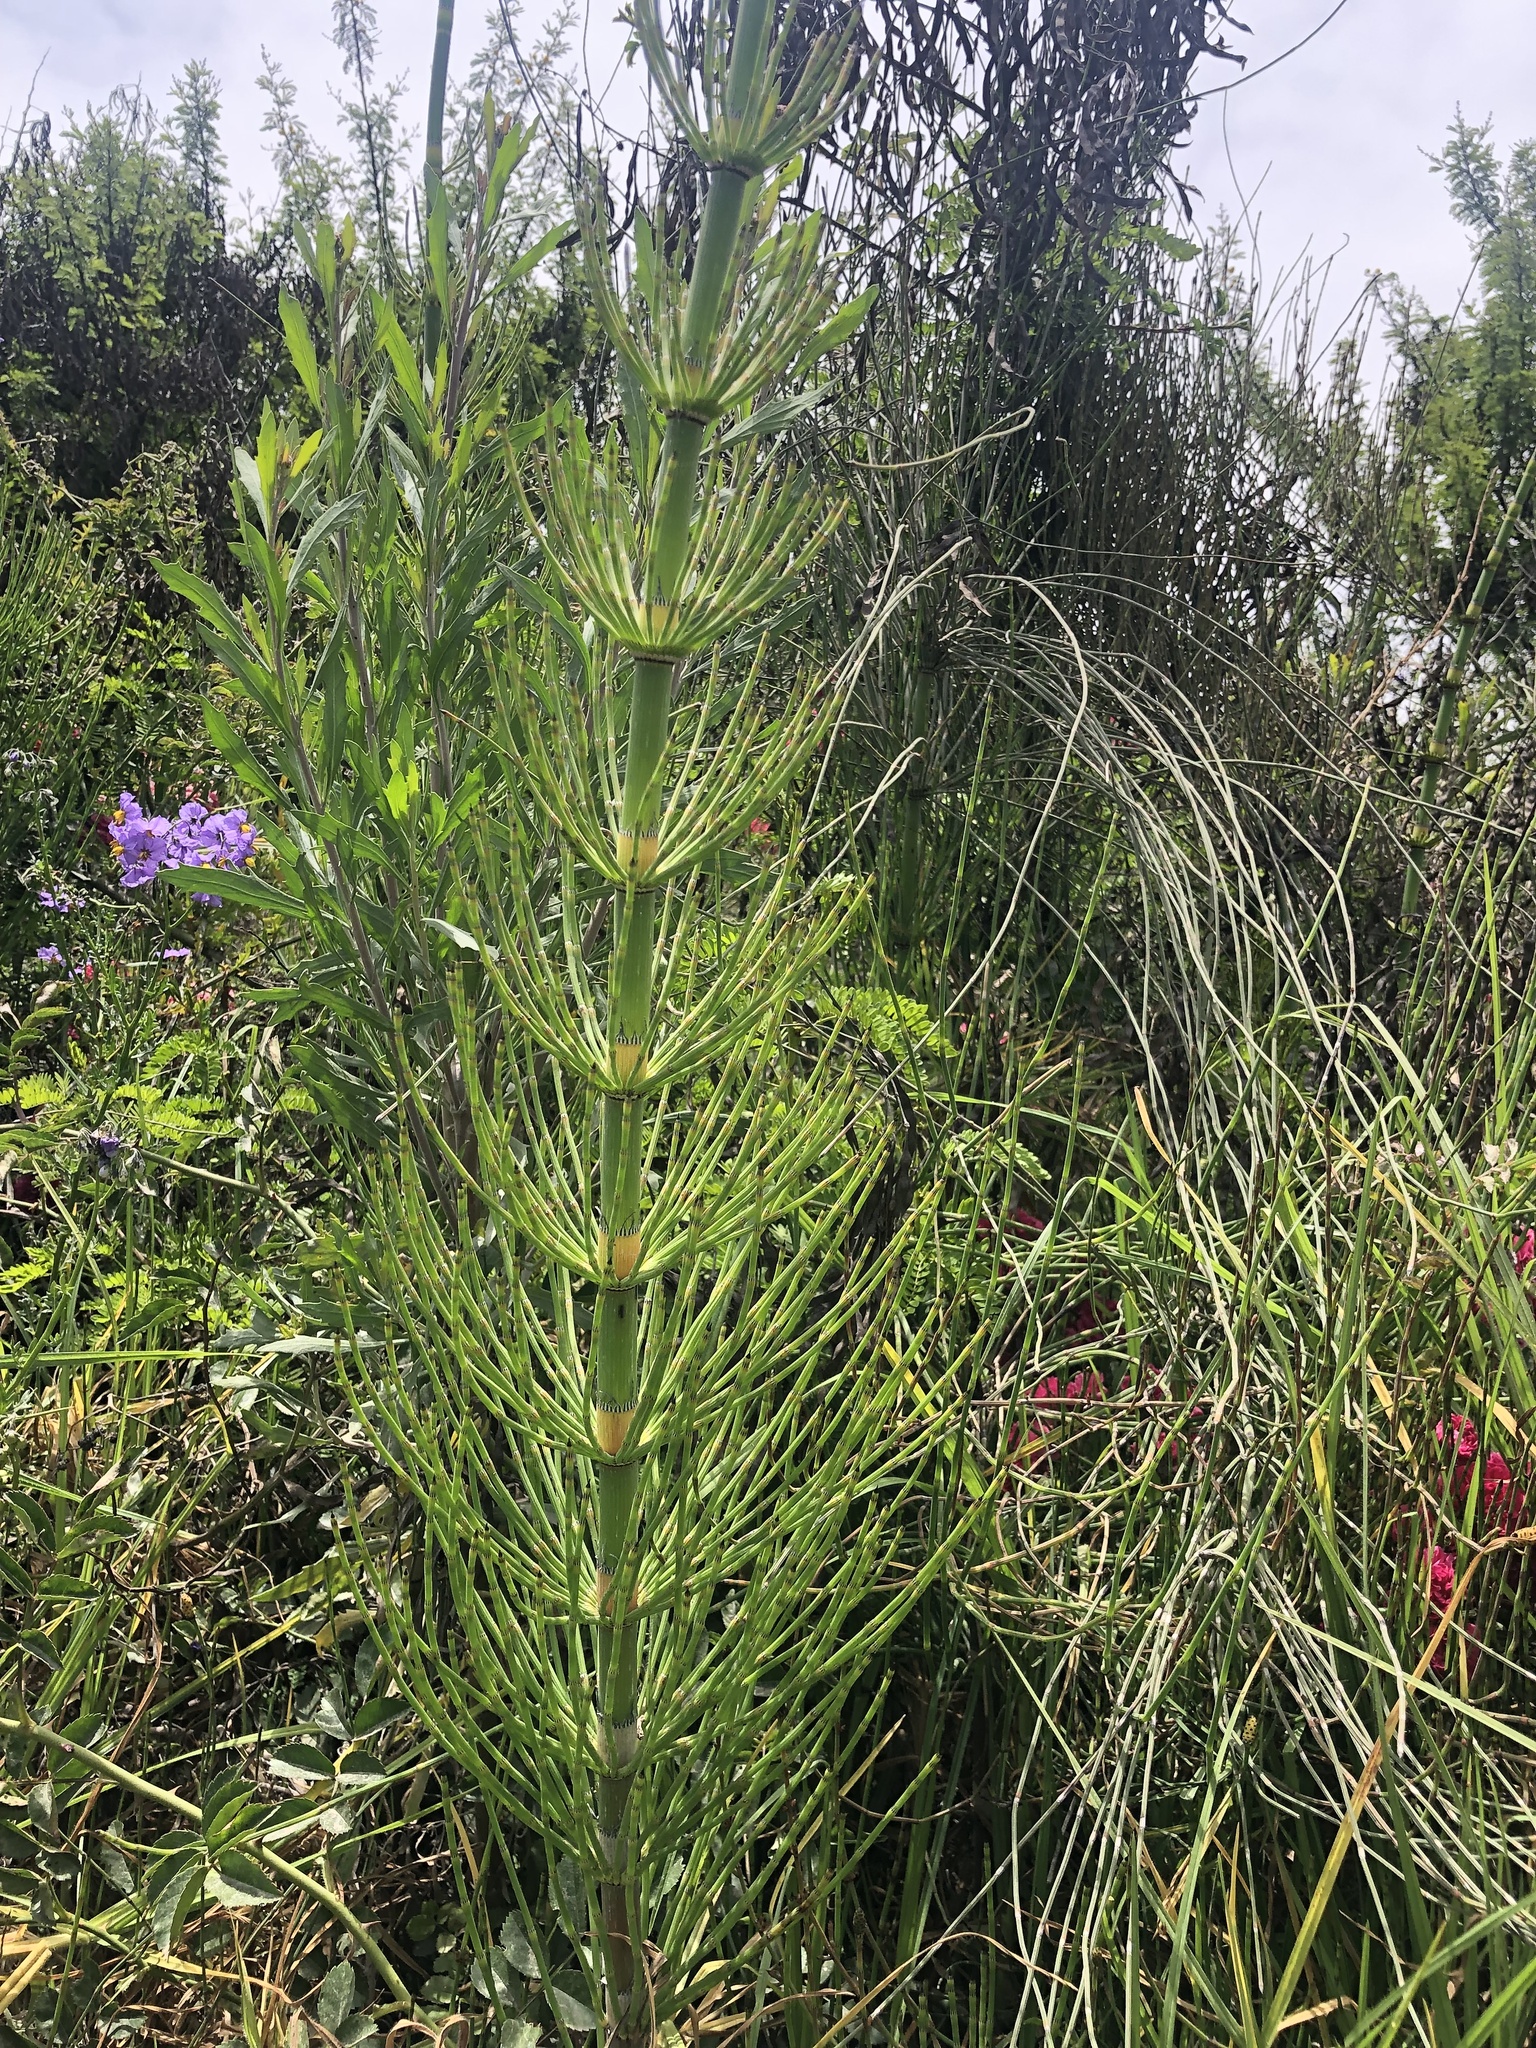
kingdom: Plantae
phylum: Tracheophyta
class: Polypodiopsida
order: Equisetales
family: Equisetaceae
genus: Equisetum
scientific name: Equisetum giganteum
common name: Giant horsetail
